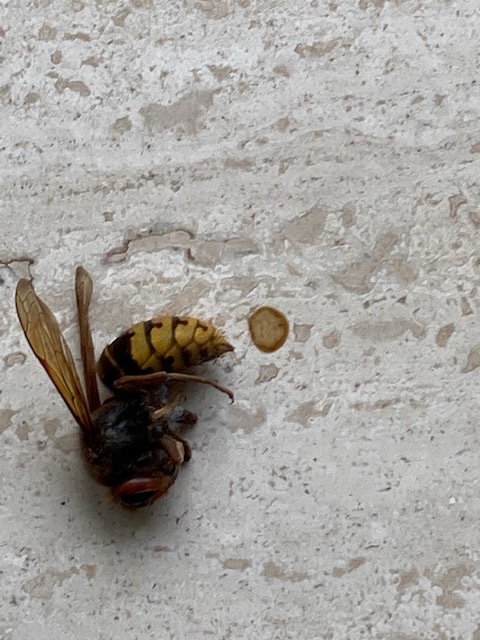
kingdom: Animalia
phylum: Arthropoda
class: Insecta
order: Hymenoptera
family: Vespidae
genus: Vespa
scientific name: Vespa crabro
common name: Hornet
